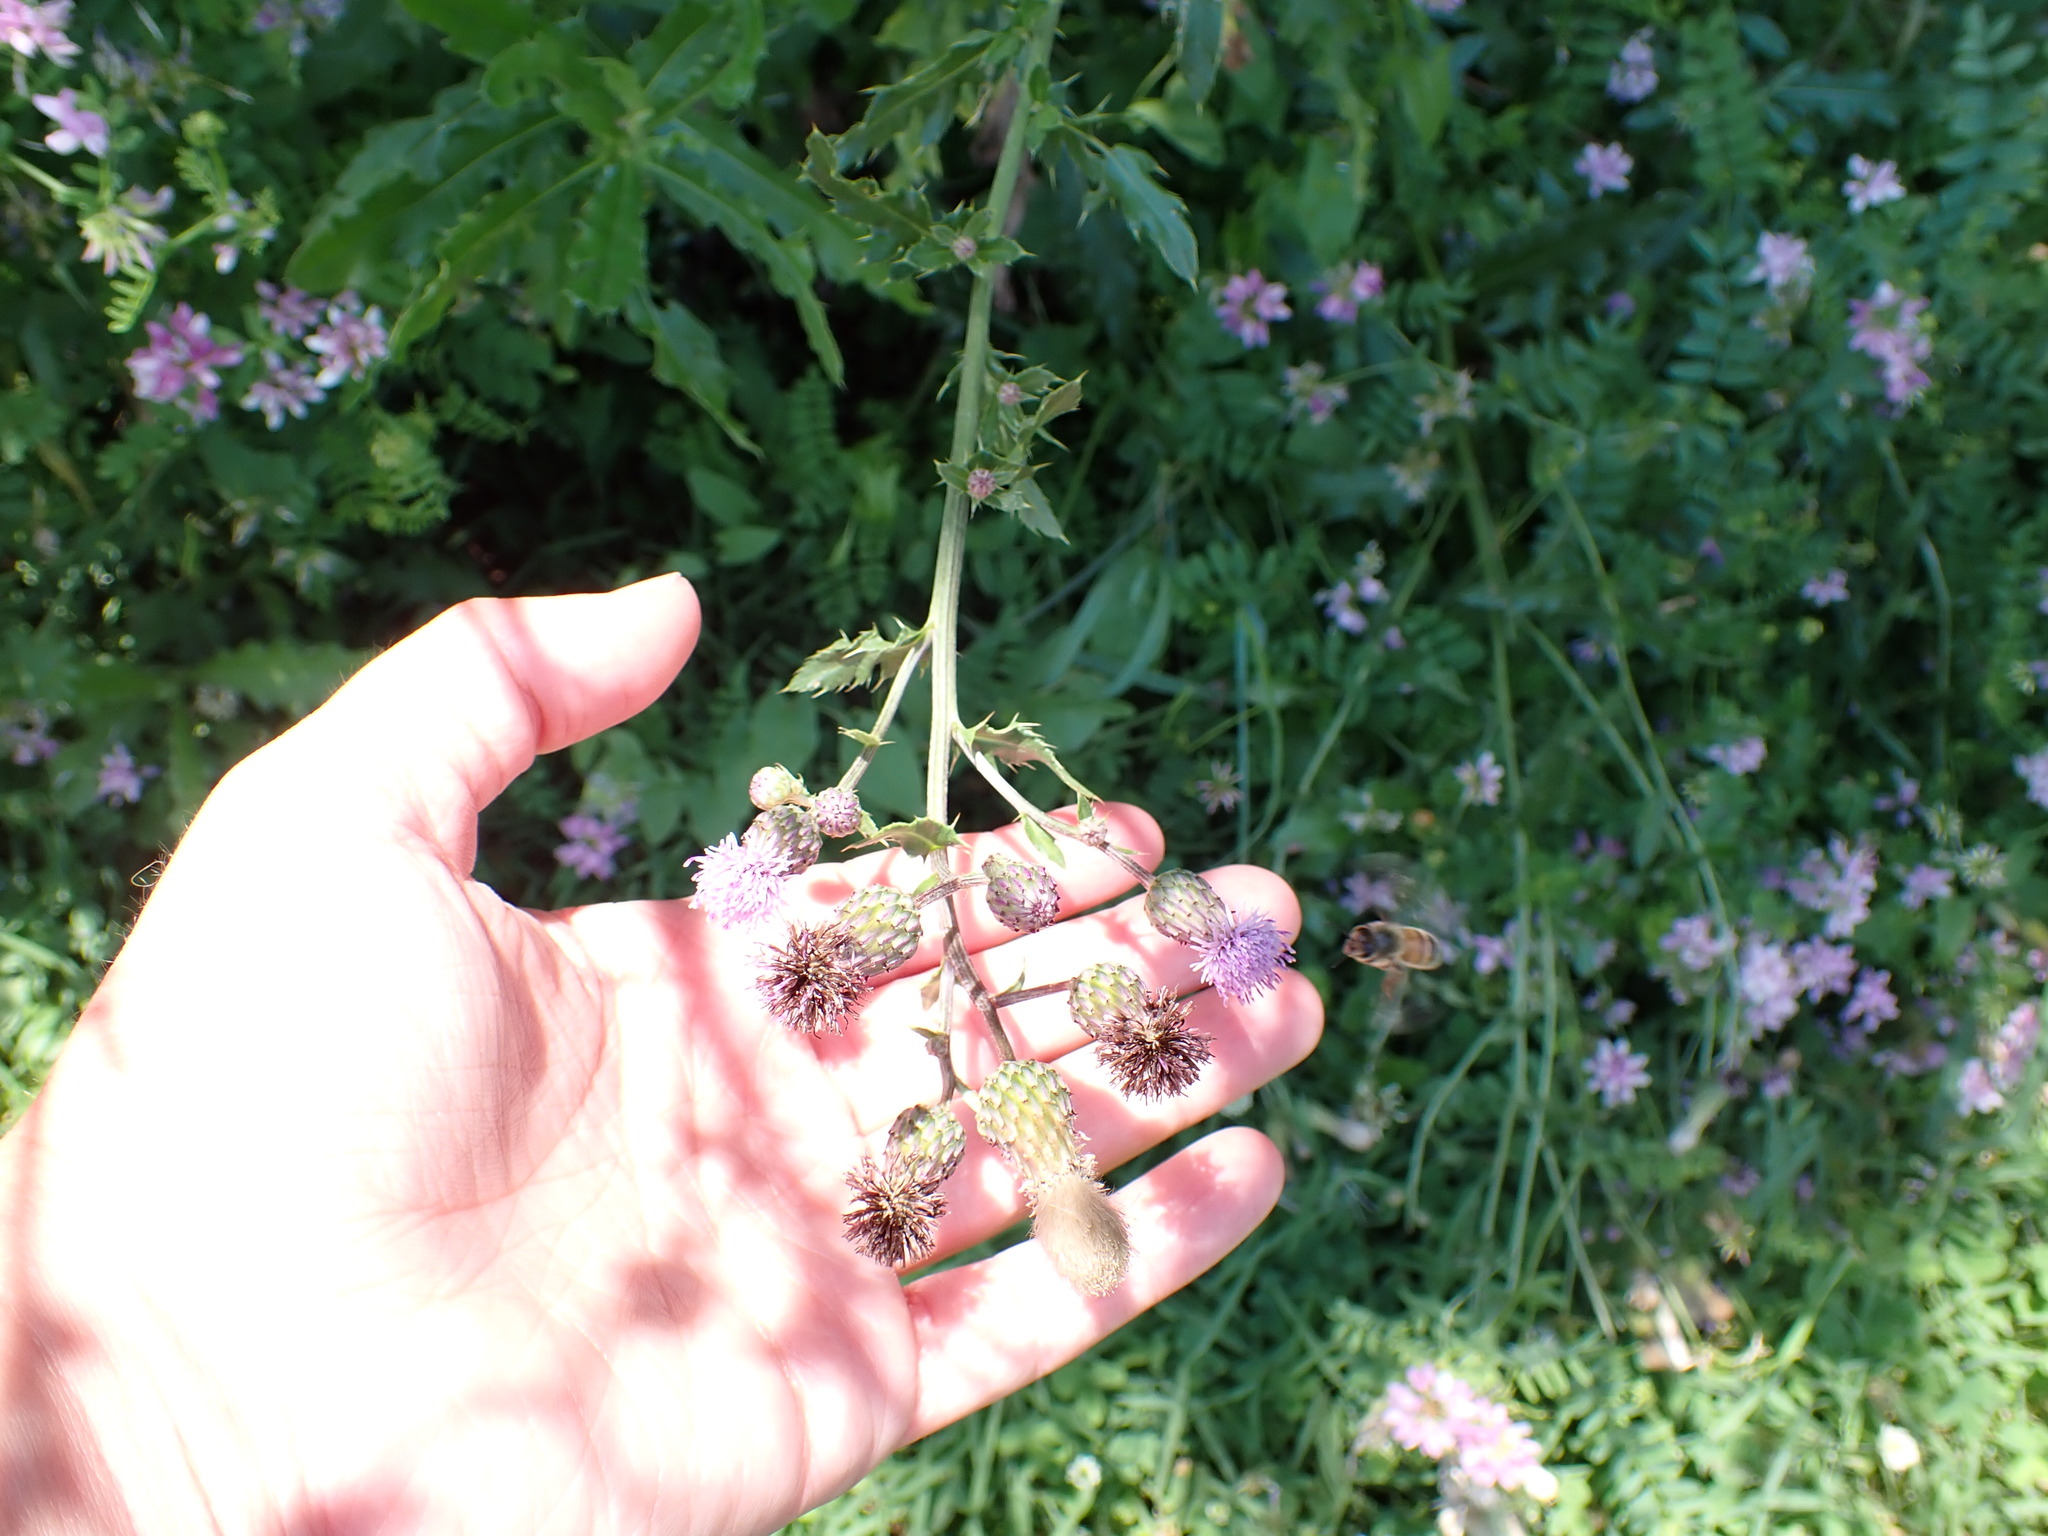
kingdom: Plantae
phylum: Tracheophyta
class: Magnoliopsida
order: Asterales
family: Asteraceae
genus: Cirsium
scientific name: Cirsium arvense
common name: Creeping thistle
